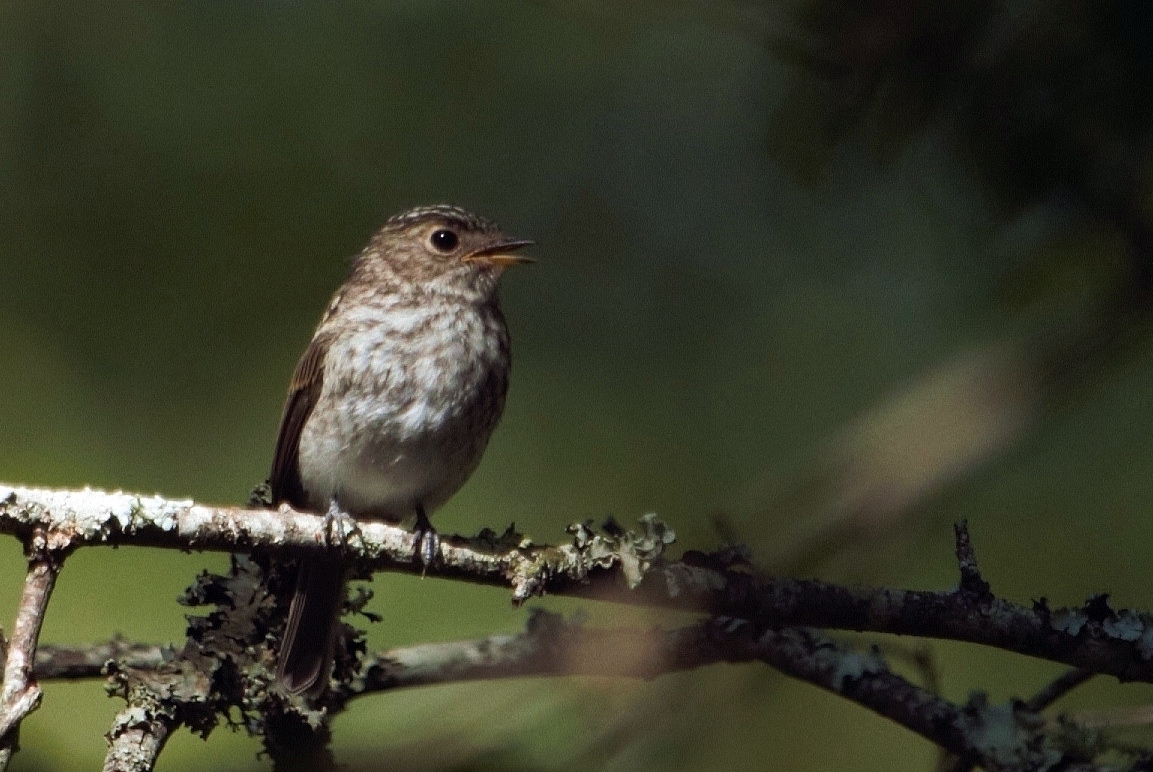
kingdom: Animalia
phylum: Chordata
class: Aves
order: Passeriformes
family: Muscicapidae
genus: Muscicapa
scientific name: Muscicapa adusta
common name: African dusky flycatcher
